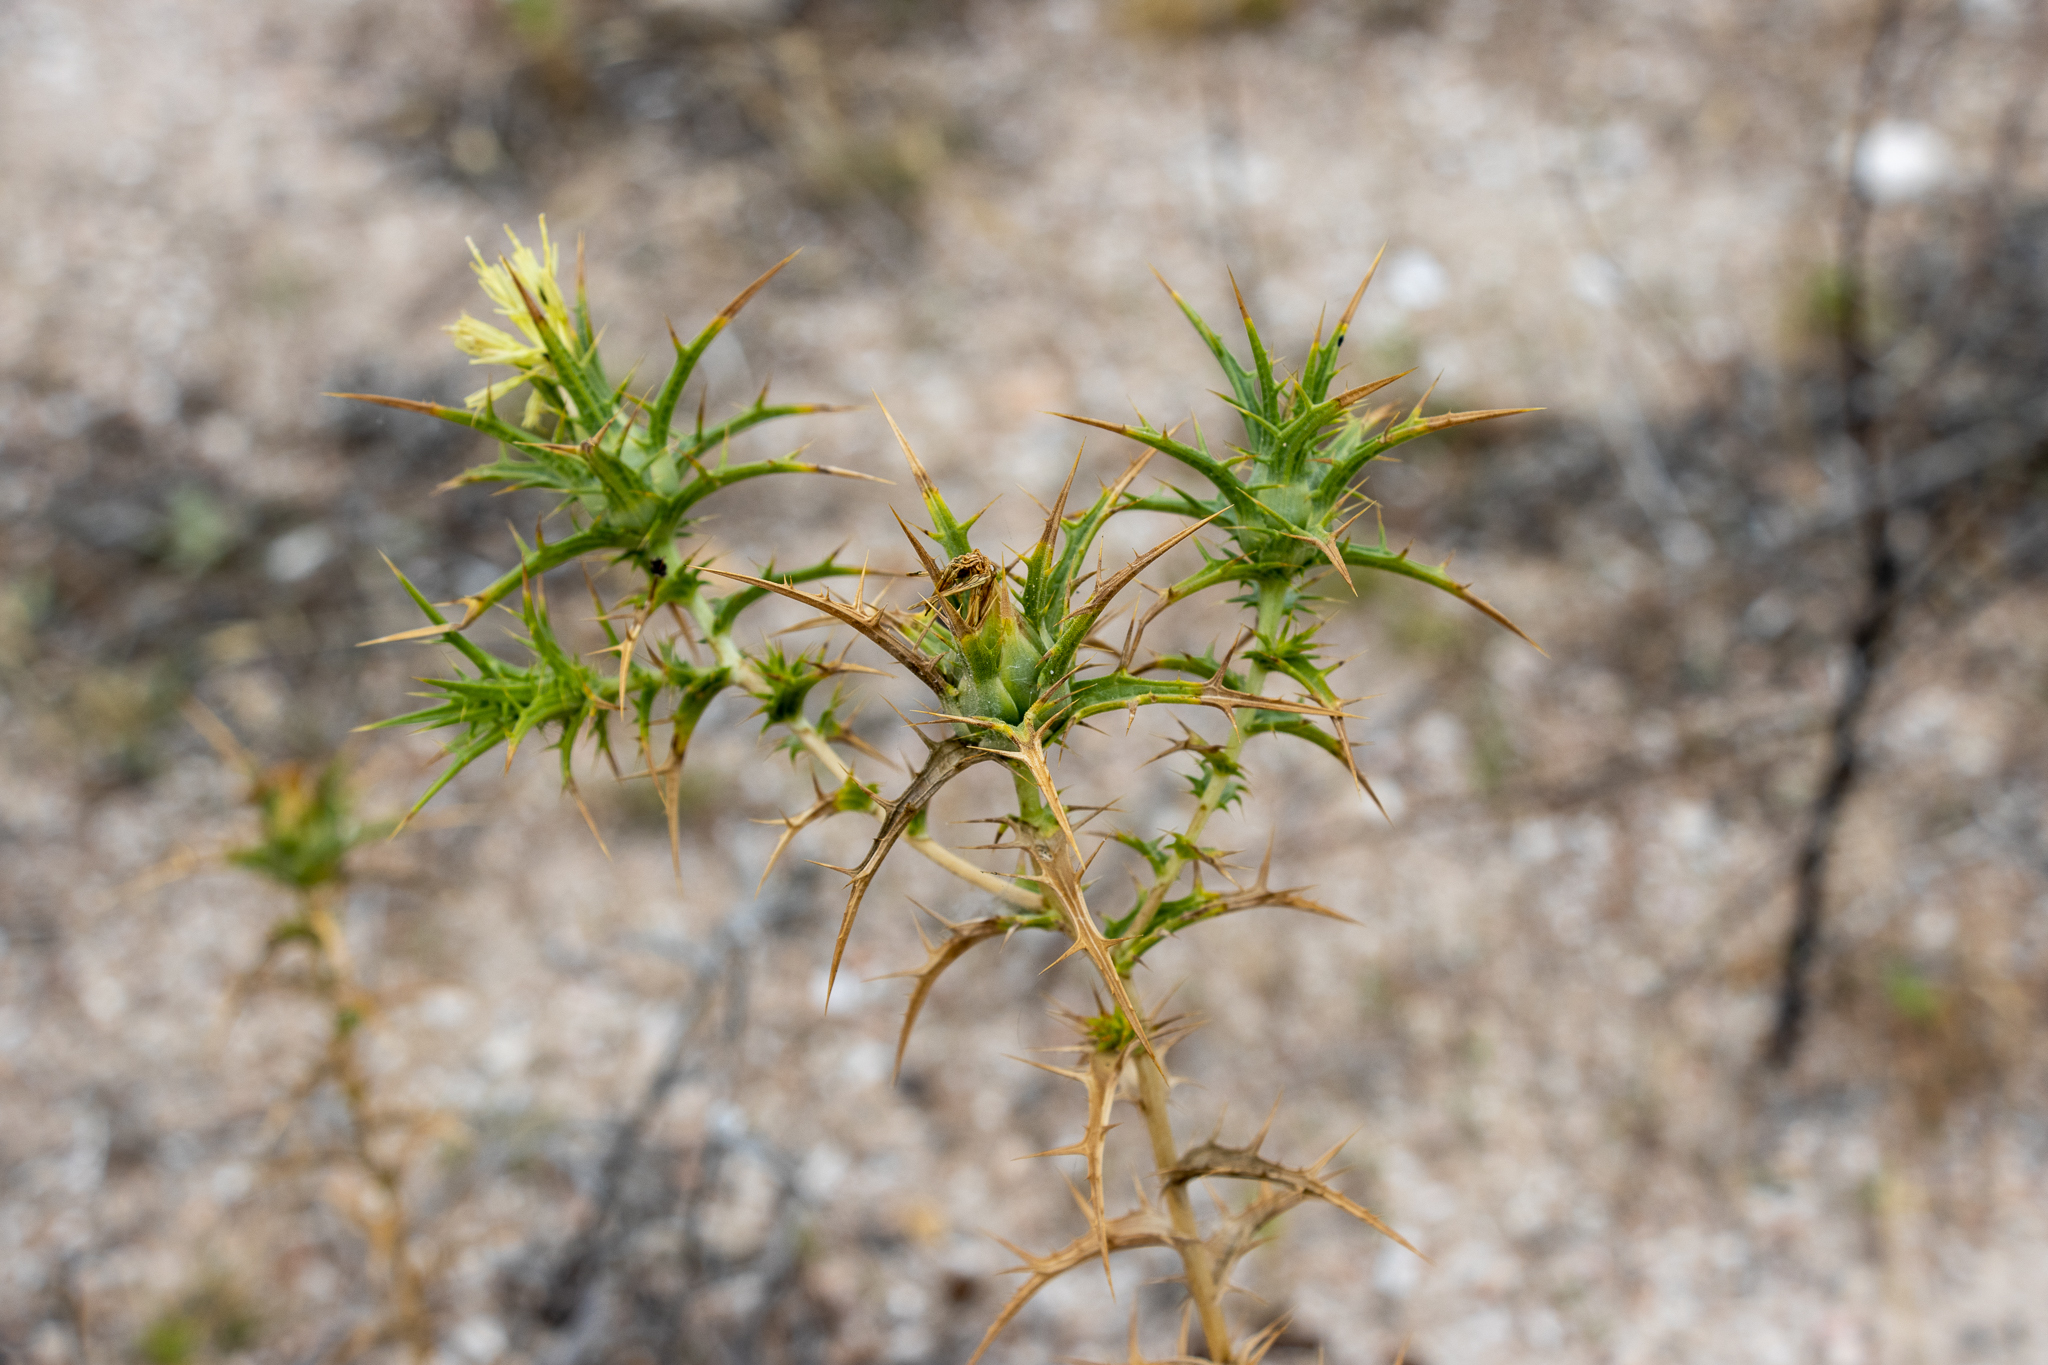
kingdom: Plantae
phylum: Tracheophyta
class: Magnoliopsida
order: Asterales
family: Asteraceae
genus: Carthamus
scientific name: Carthamus creticus
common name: Smooth distaff thistle
